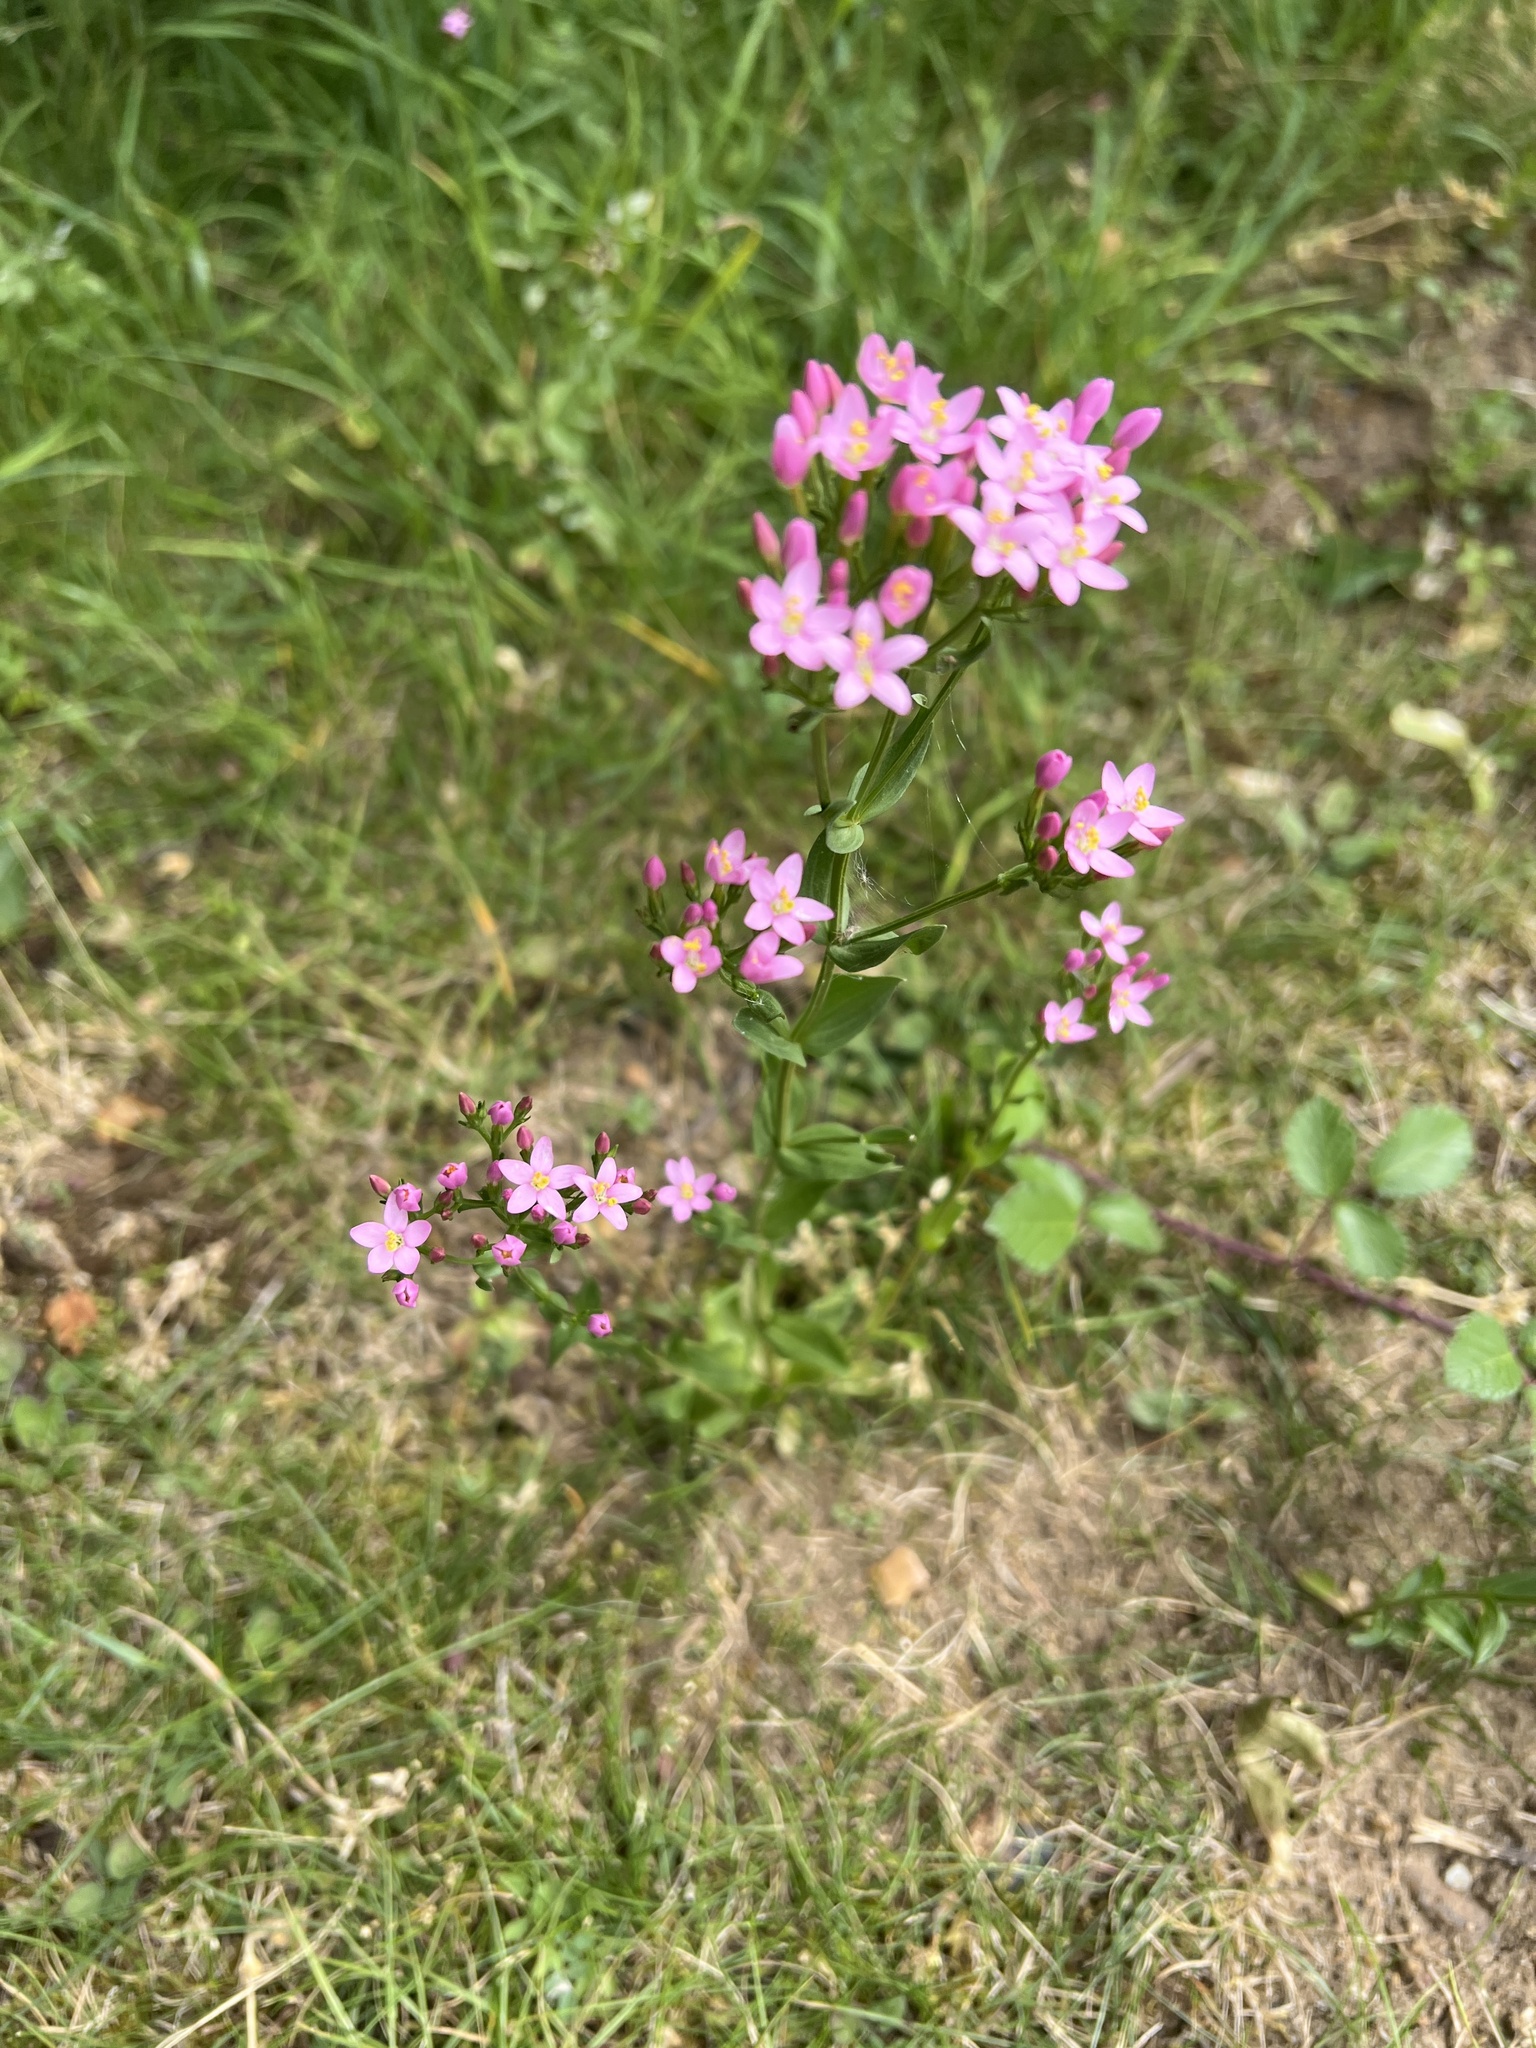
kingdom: Plantae
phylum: Tracheophyta
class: Magnoliopsida
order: Gentianales
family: Gentianaceae
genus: Centaurium
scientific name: Centaurium erythraea
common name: Common centaury
